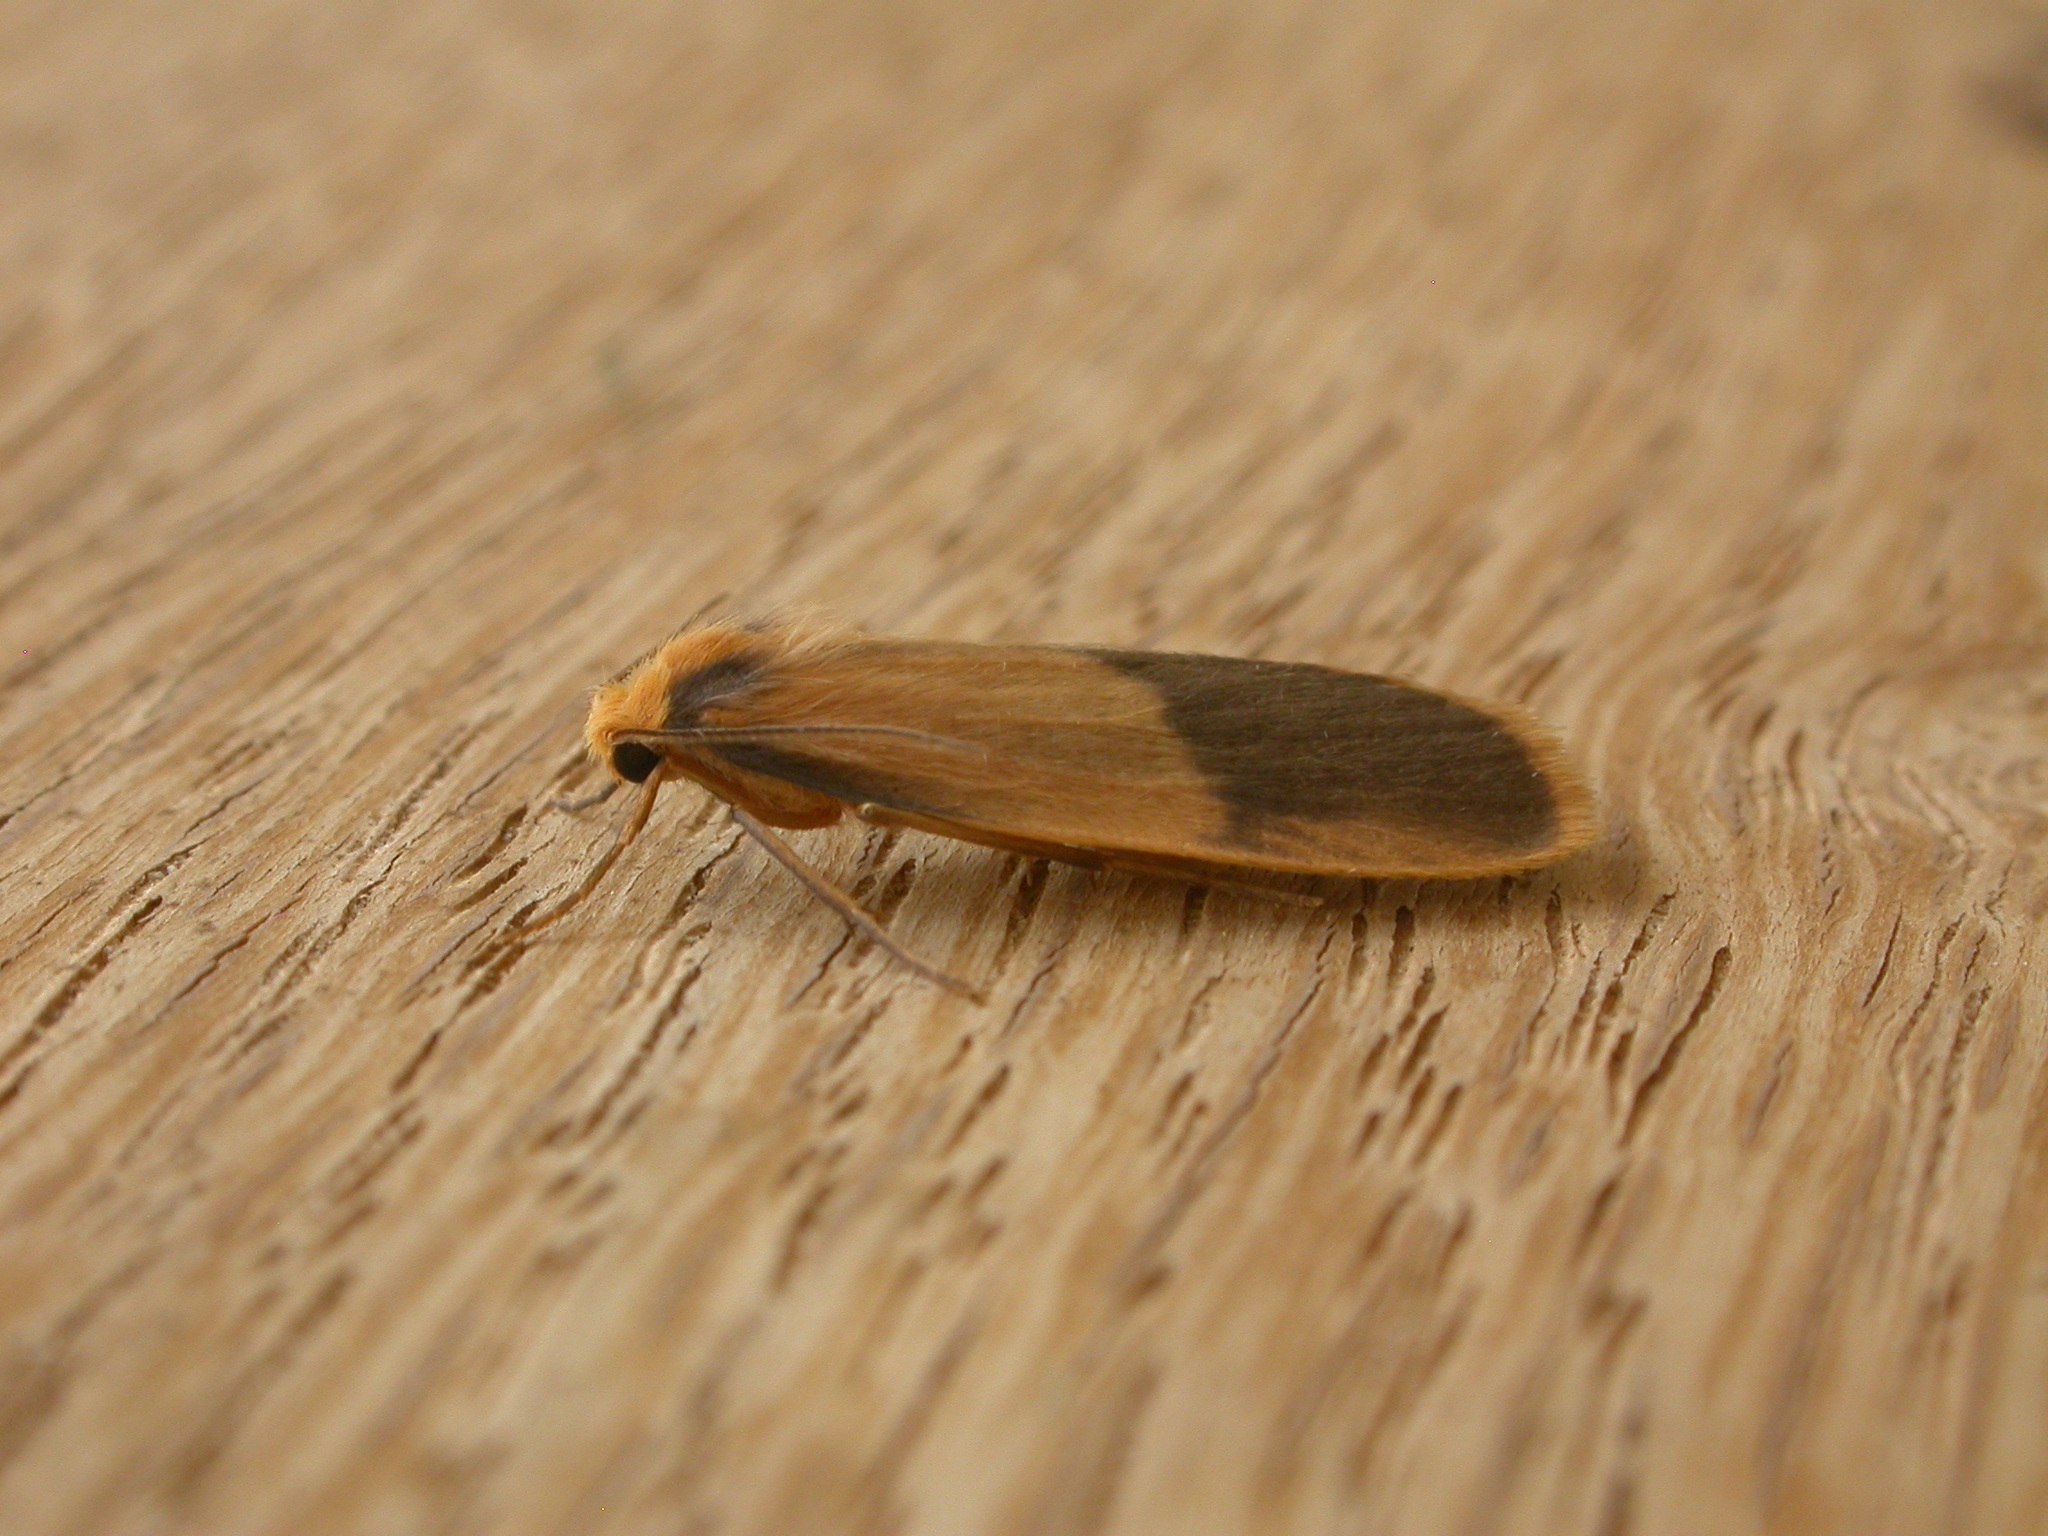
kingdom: Animalia
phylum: Arthropoda
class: Insecta
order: Lepidoptera
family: Erebidae
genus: Threnosia
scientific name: Threnosia heminephes
